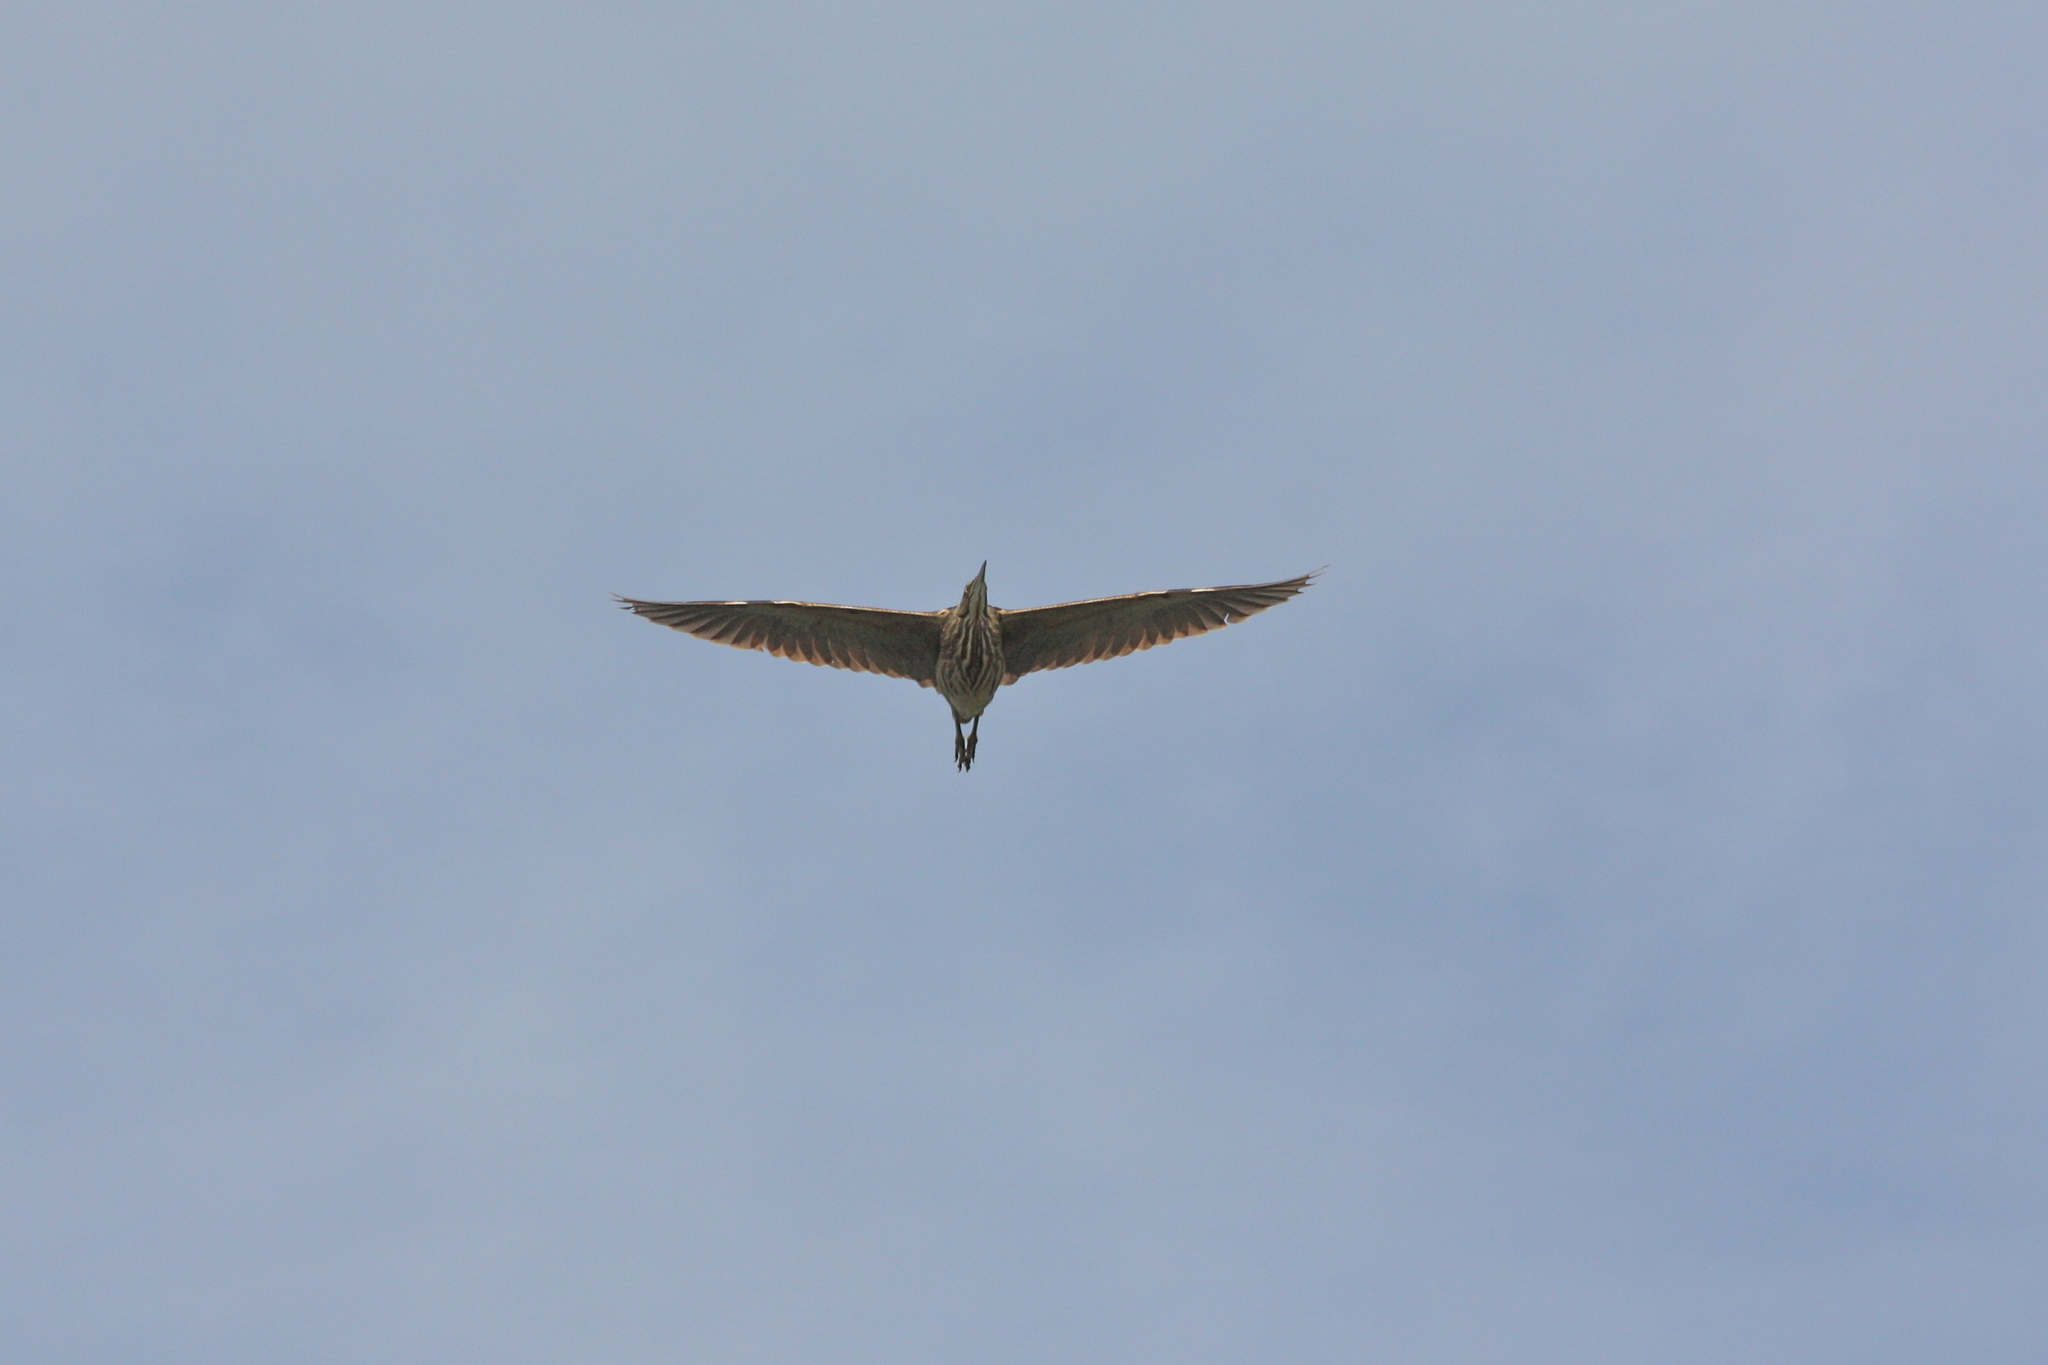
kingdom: Animalia
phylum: Chordata
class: Aves
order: Pelecaniformes
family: Ardeidae
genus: Botaurus
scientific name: Botaurus lentiginosus
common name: American bittern
